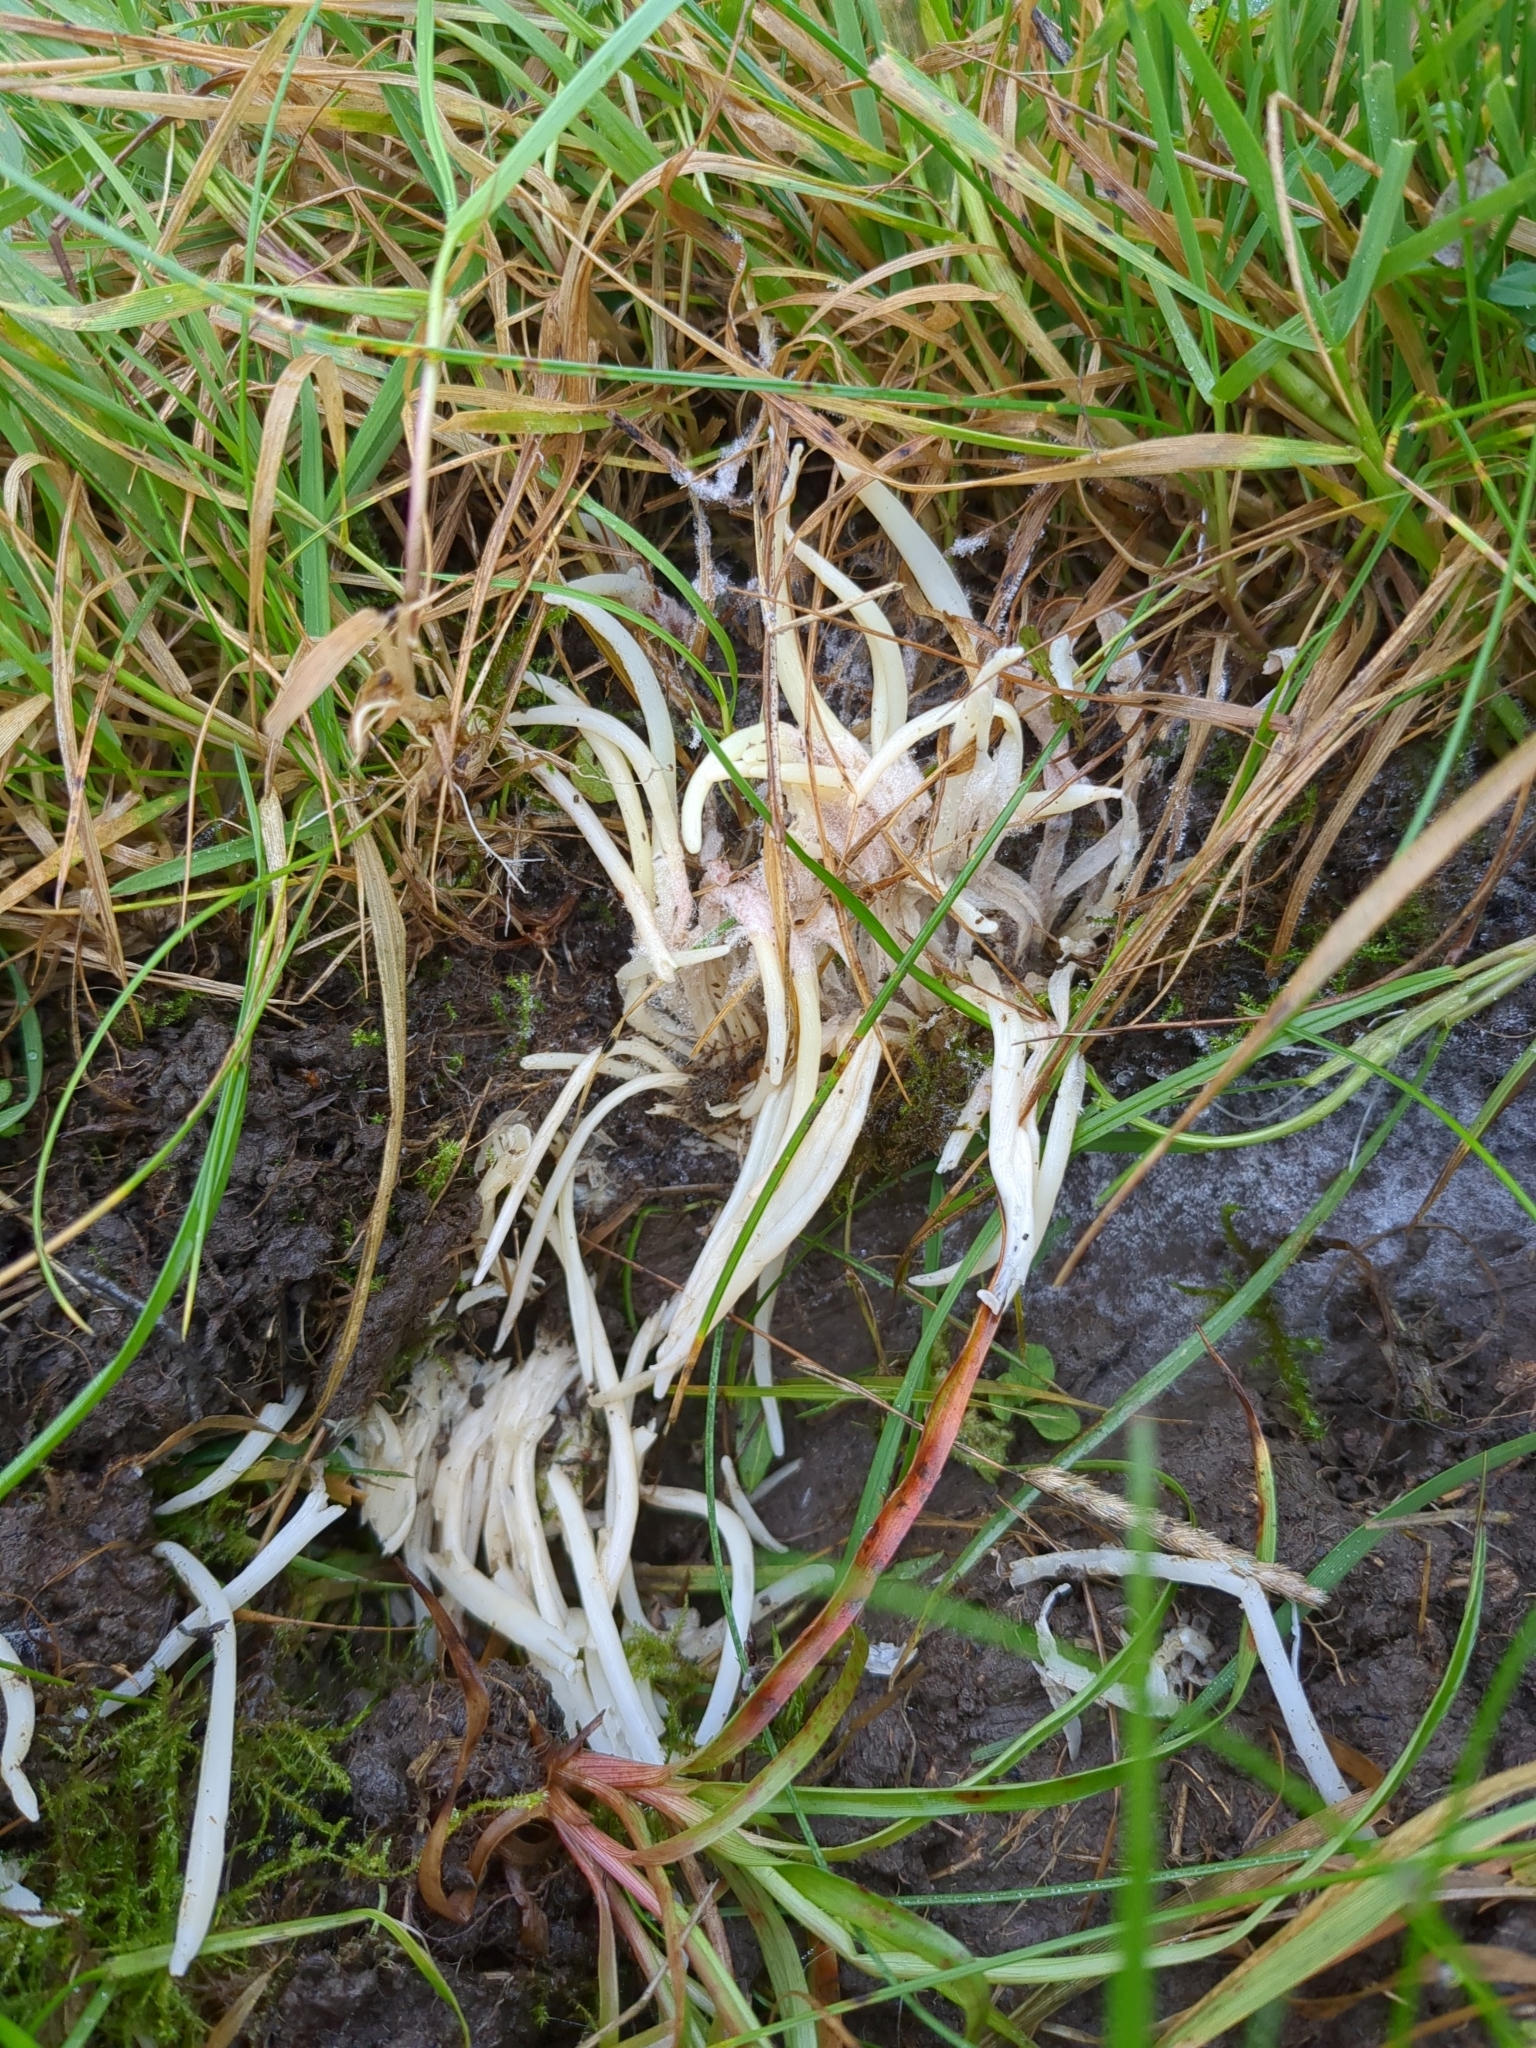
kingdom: Fungi
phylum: Basidiomycota
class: Agaricomycetes
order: Agaricales
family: Clavariaceae
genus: Clavaria
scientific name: Clavaria fragilis
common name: White spindles
